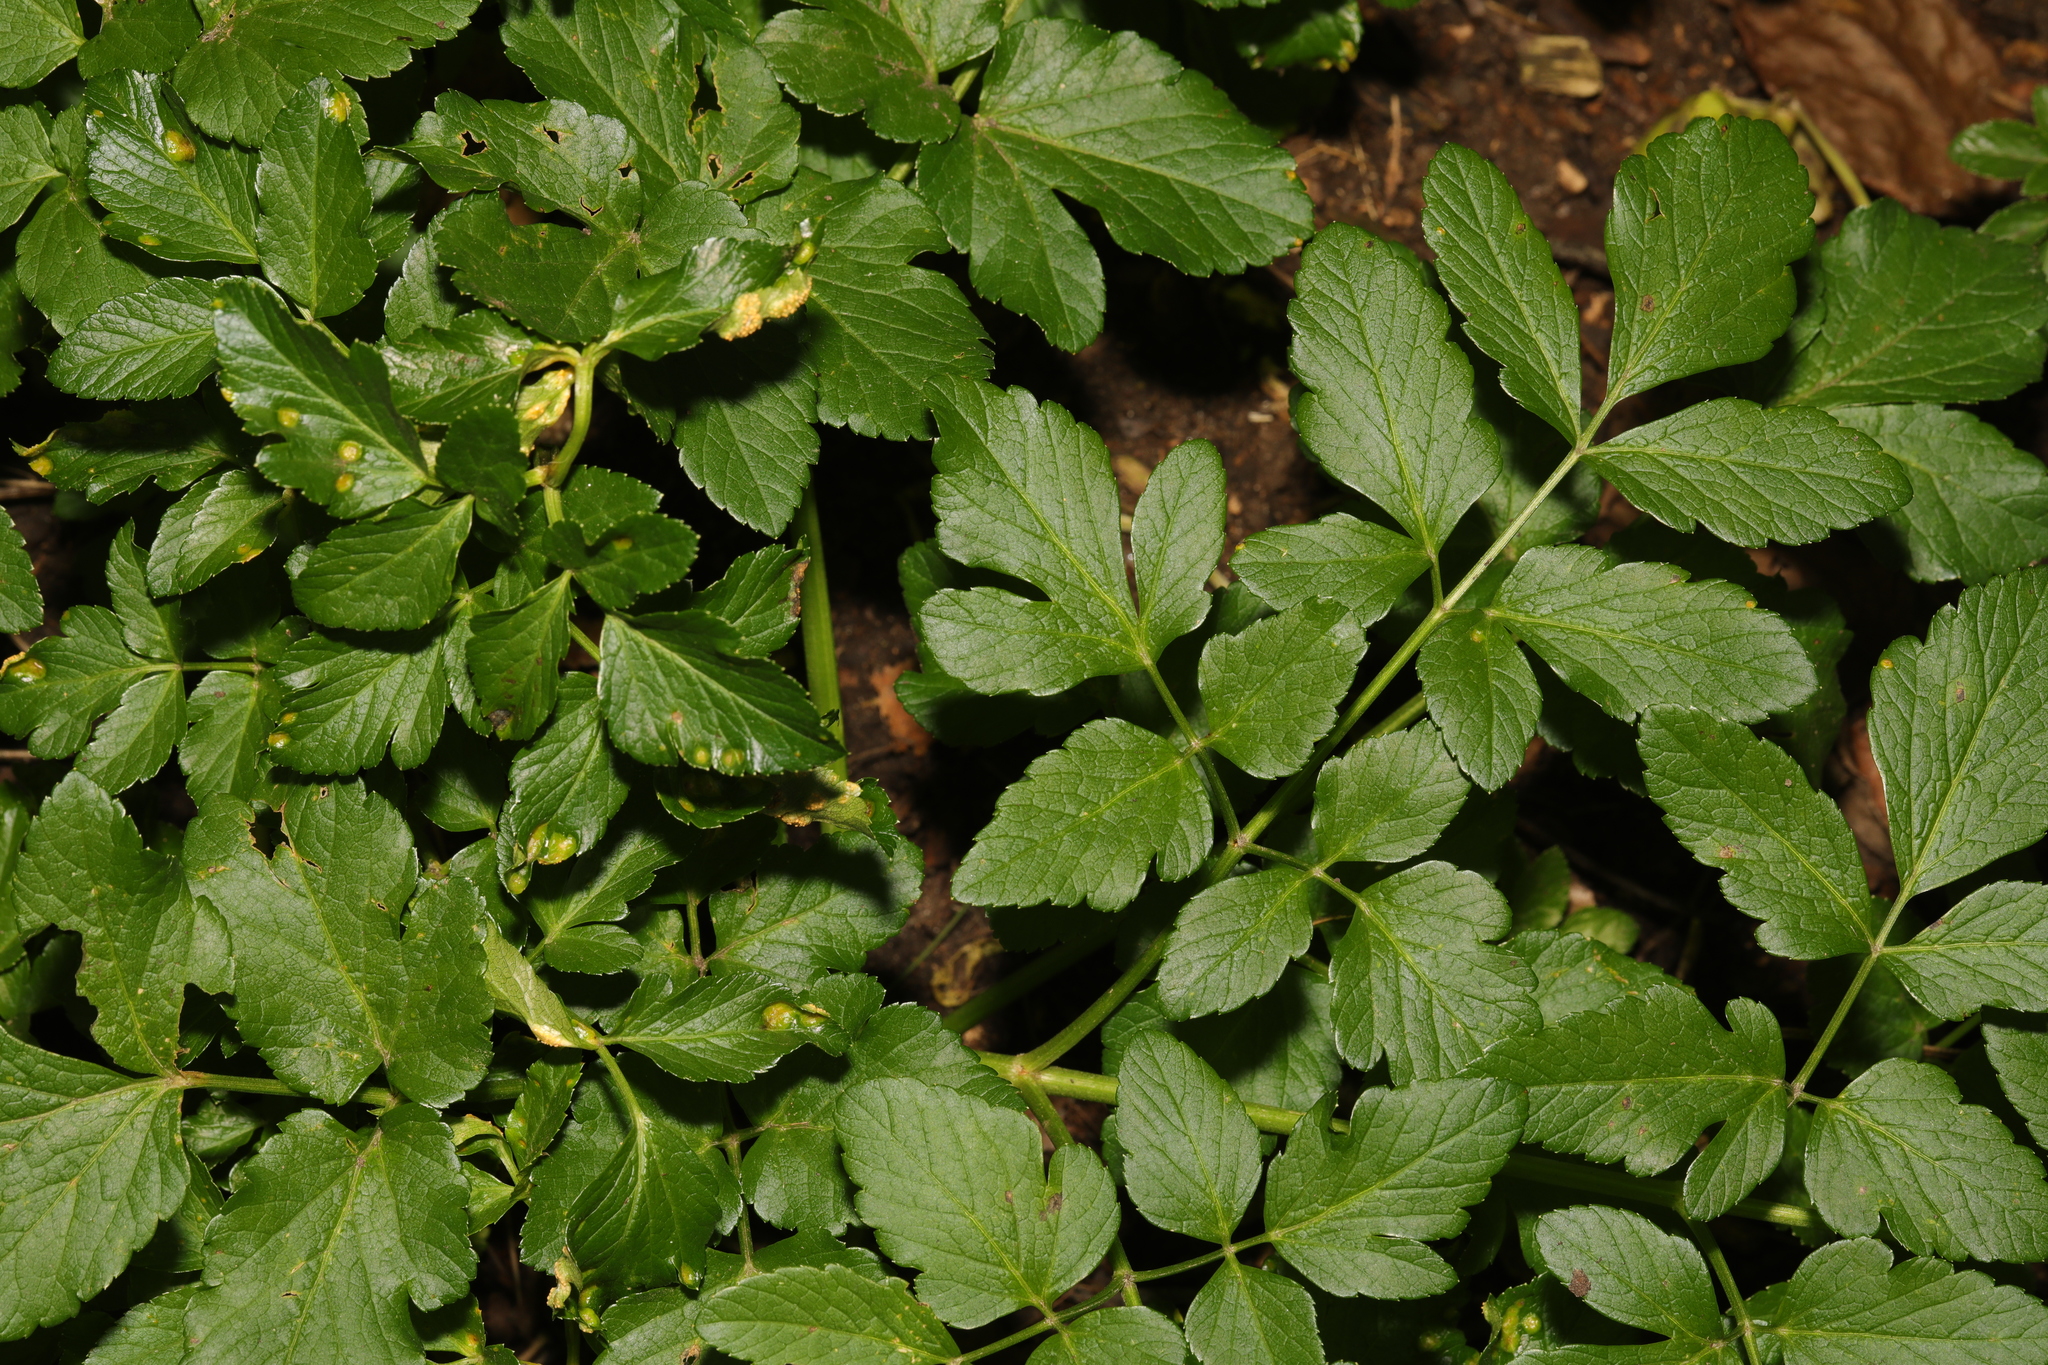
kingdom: Plantae
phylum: Tracheophyta
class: Magnoliopsida
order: Apiales
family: Apiaceae
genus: Smyrnium
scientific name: Smyrnium olusatrum
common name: Alexanders
